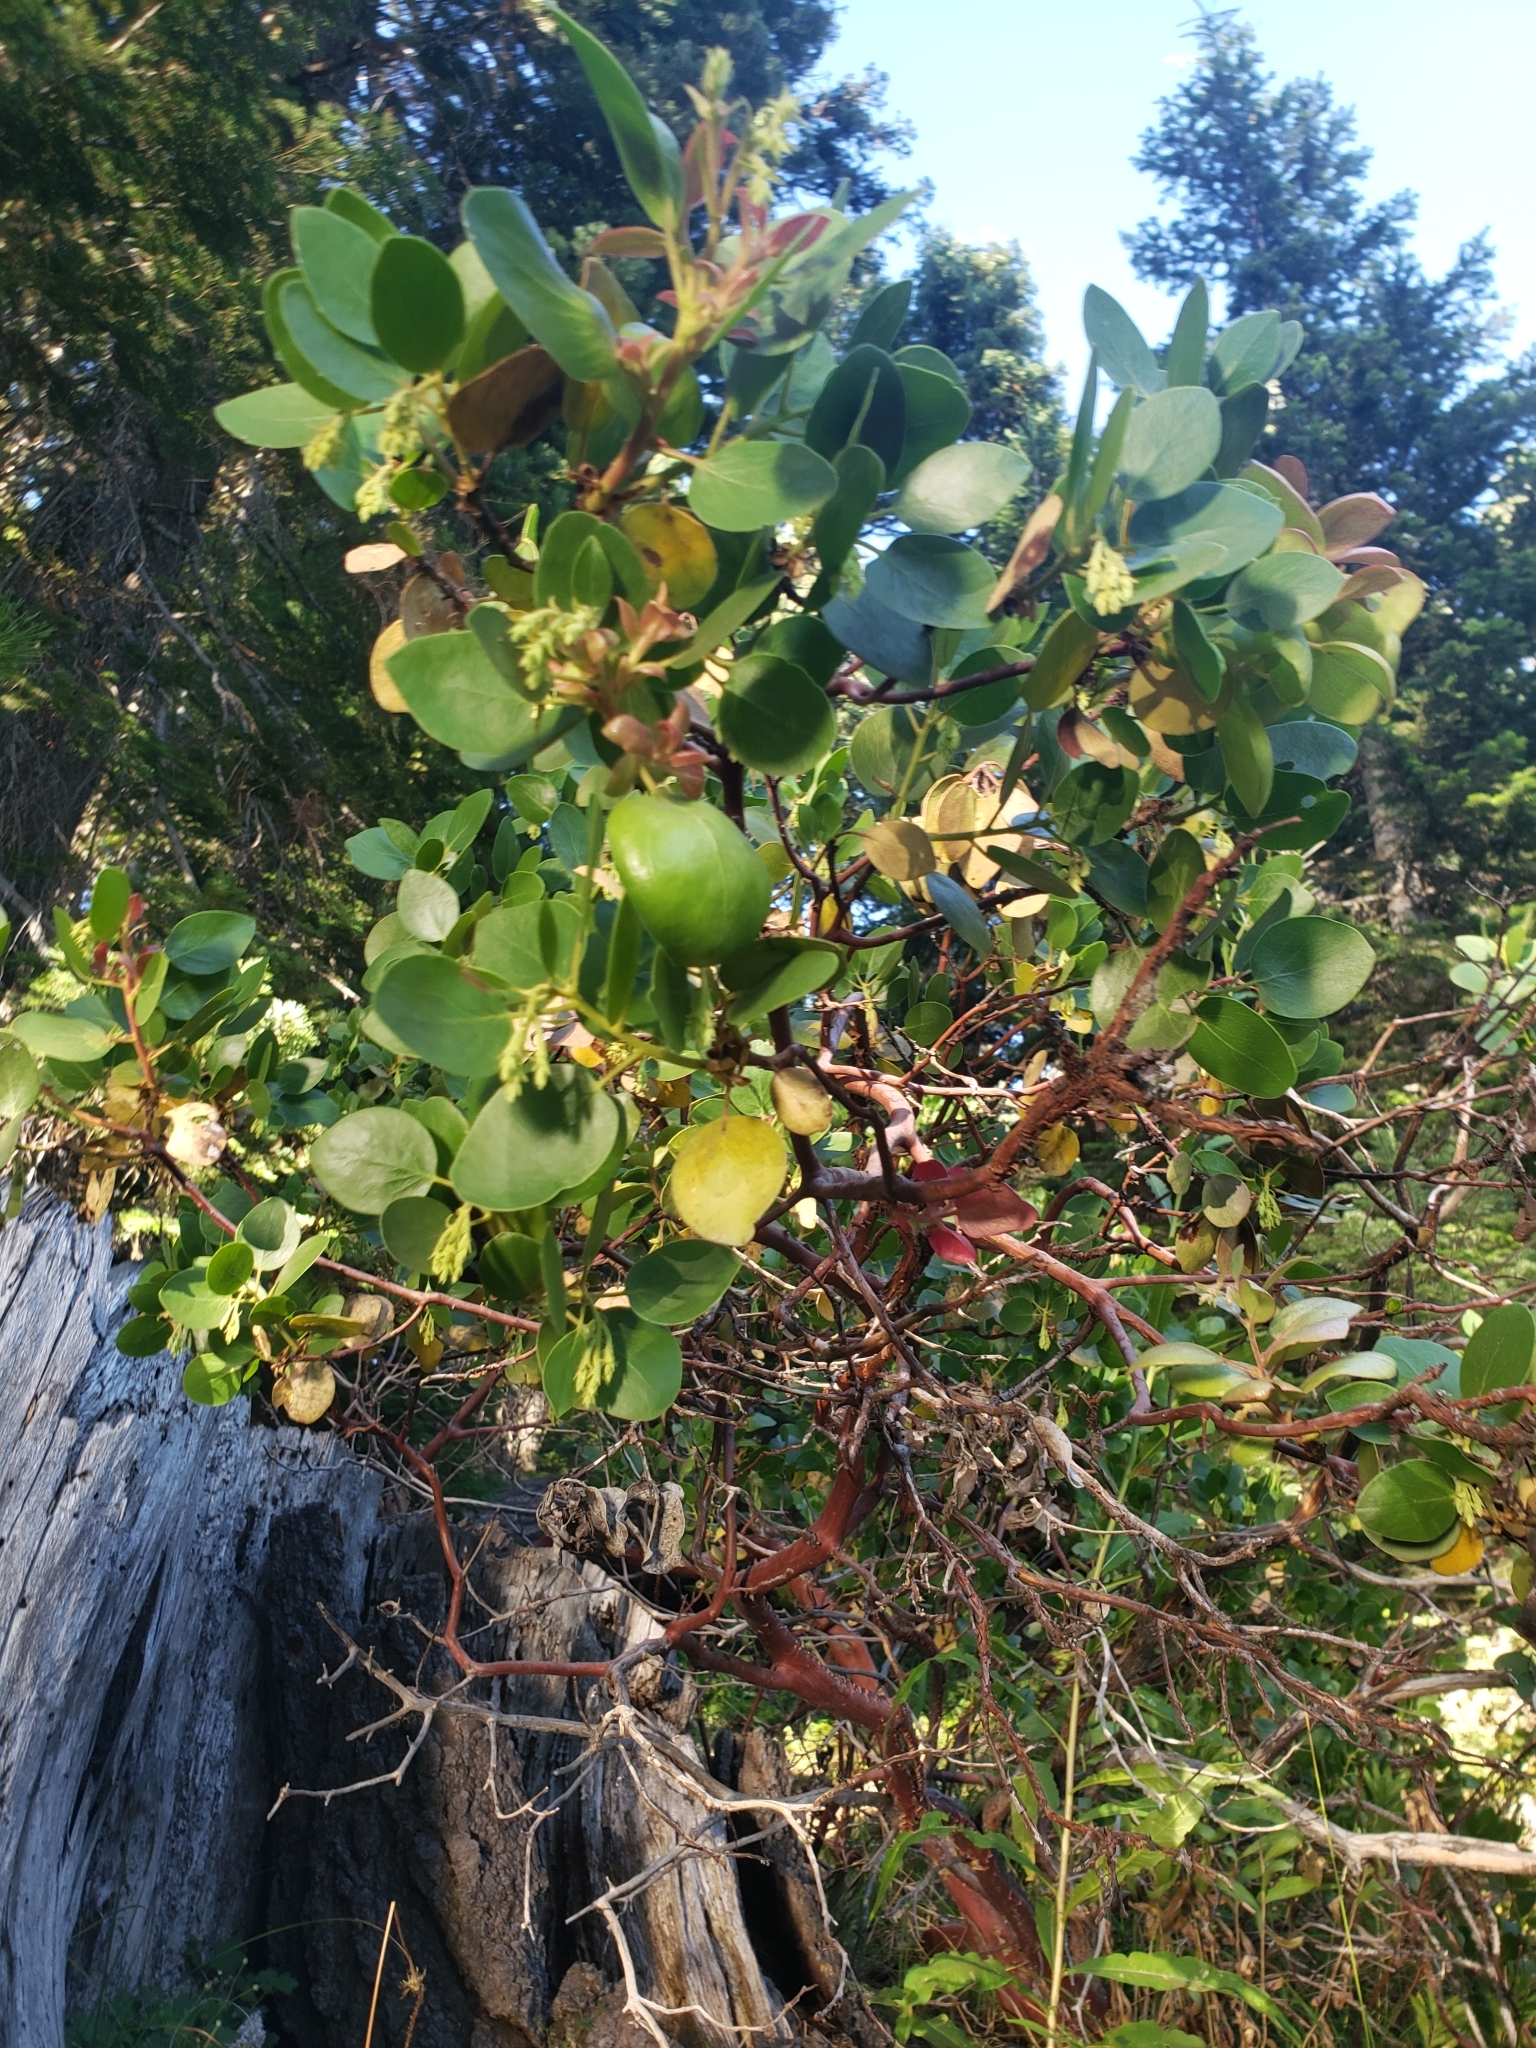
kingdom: Plantae
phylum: Tracheophyta
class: Magnoliopsida
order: Ericales
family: Ericaceae
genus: Arctostaphylos
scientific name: Arctostaphylos patula
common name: Green-leaf manzanita
